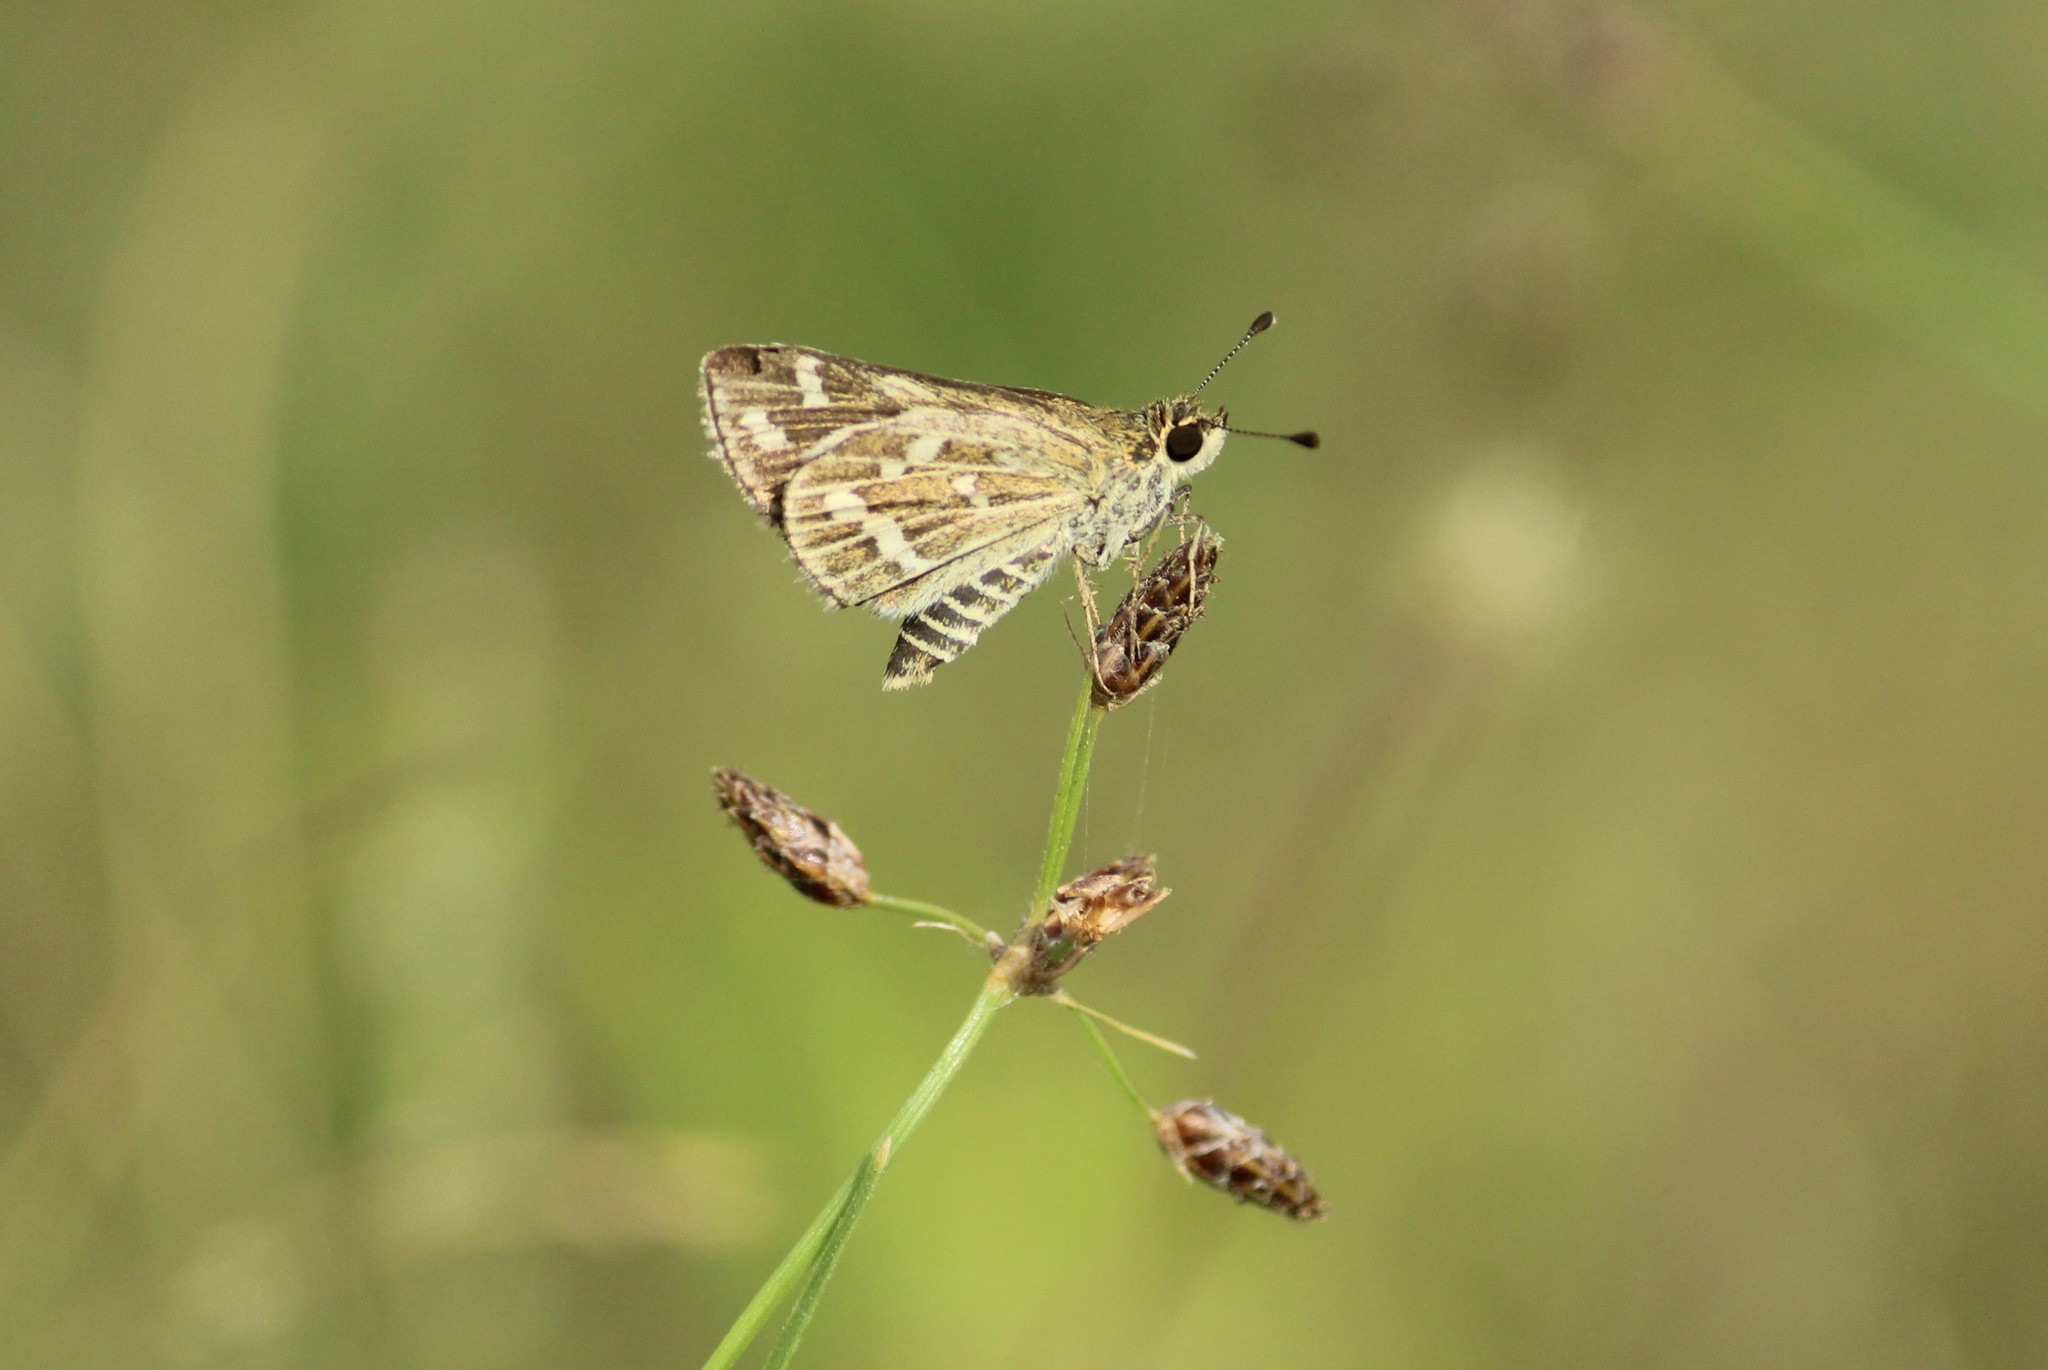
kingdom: Animalia
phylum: Arthropoda
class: Insecta
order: Lepidoptera
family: Hesperiidae
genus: Taractrocera
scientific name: Taractrocera maevius
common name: Common grass-dart
